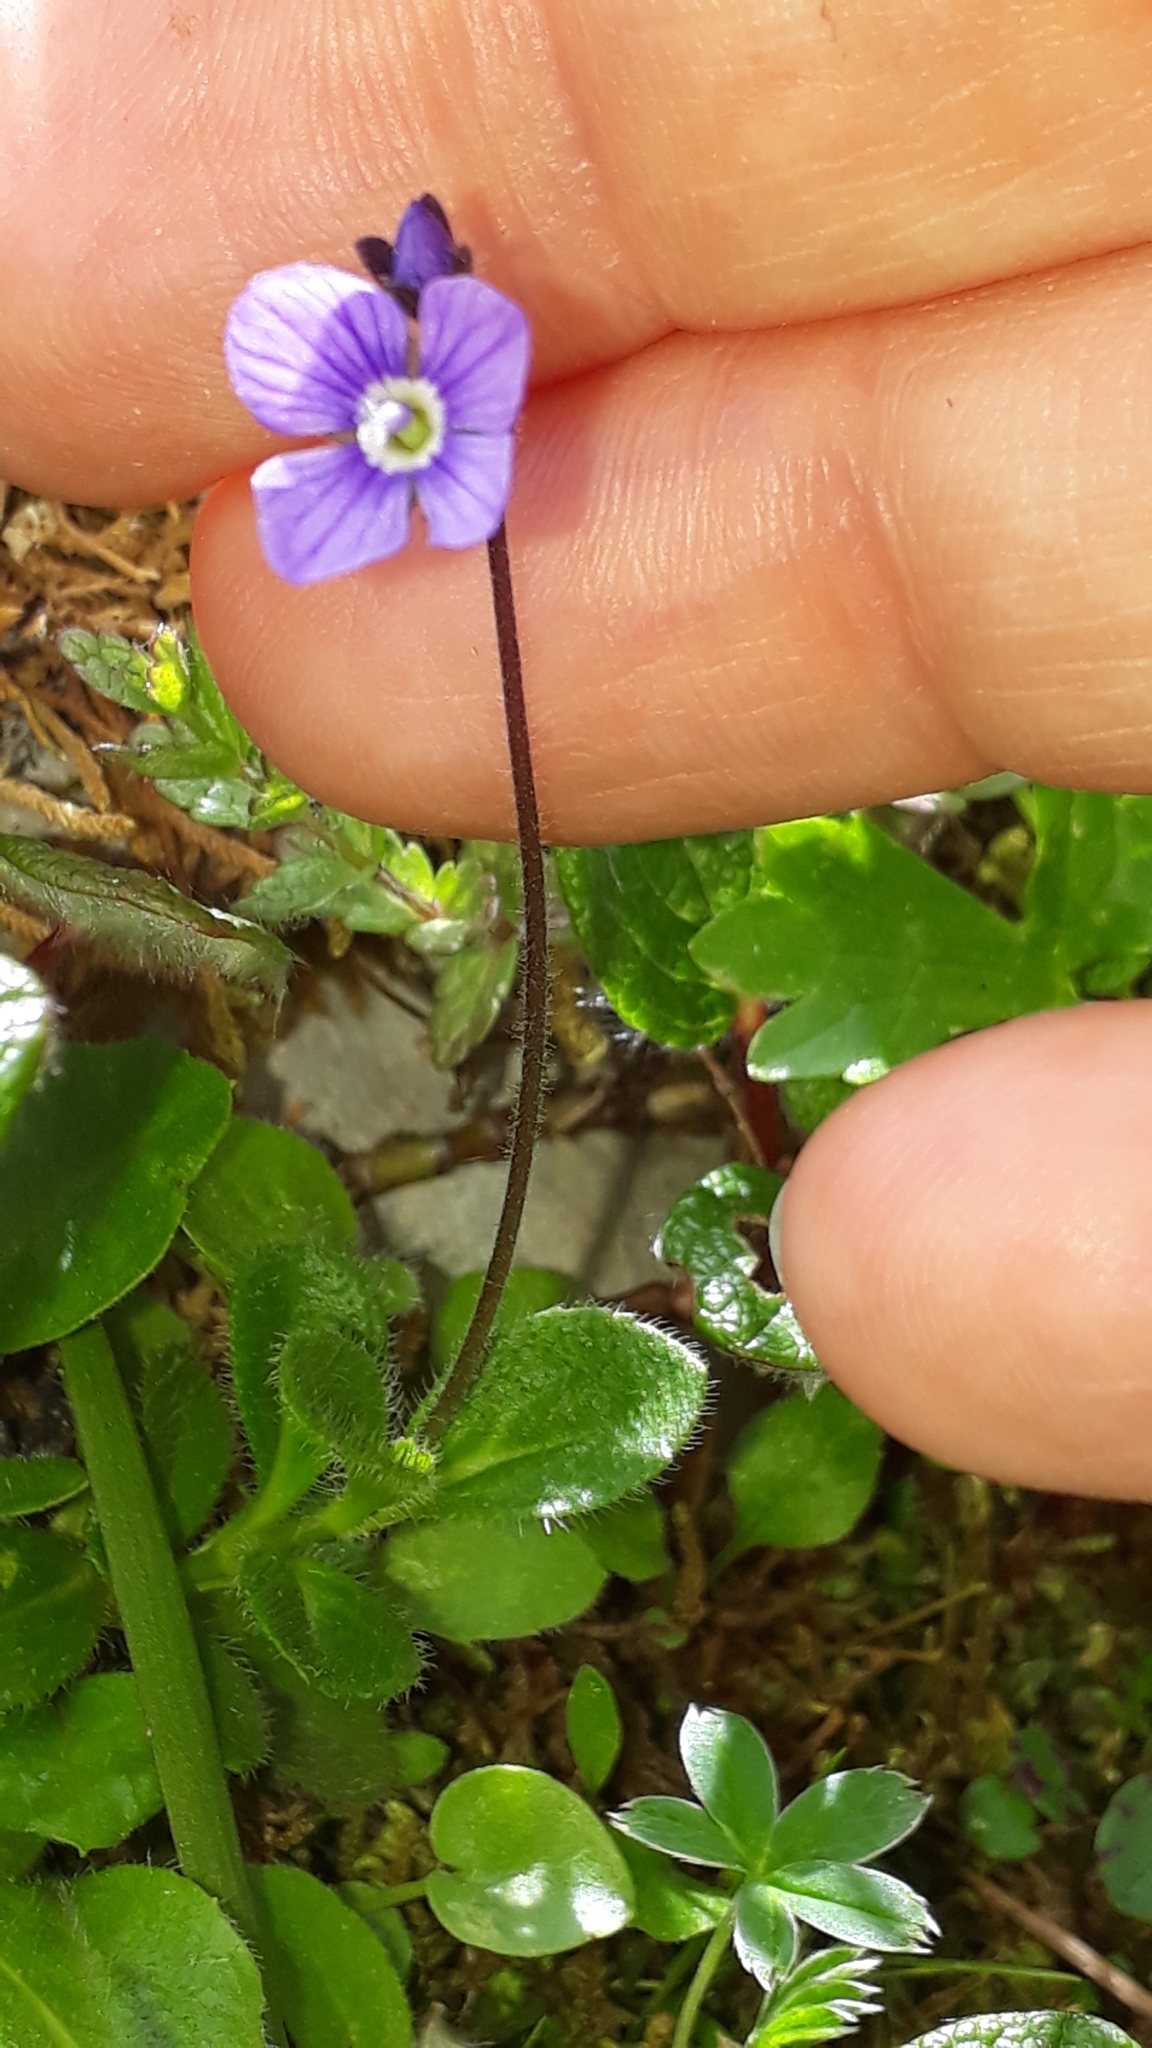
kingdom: Plantae
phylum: Tracheophyta
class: Magnoliopsida
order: Lamiales
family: Plantaginaceae
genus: Veronica
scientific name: Veronica aphylla
